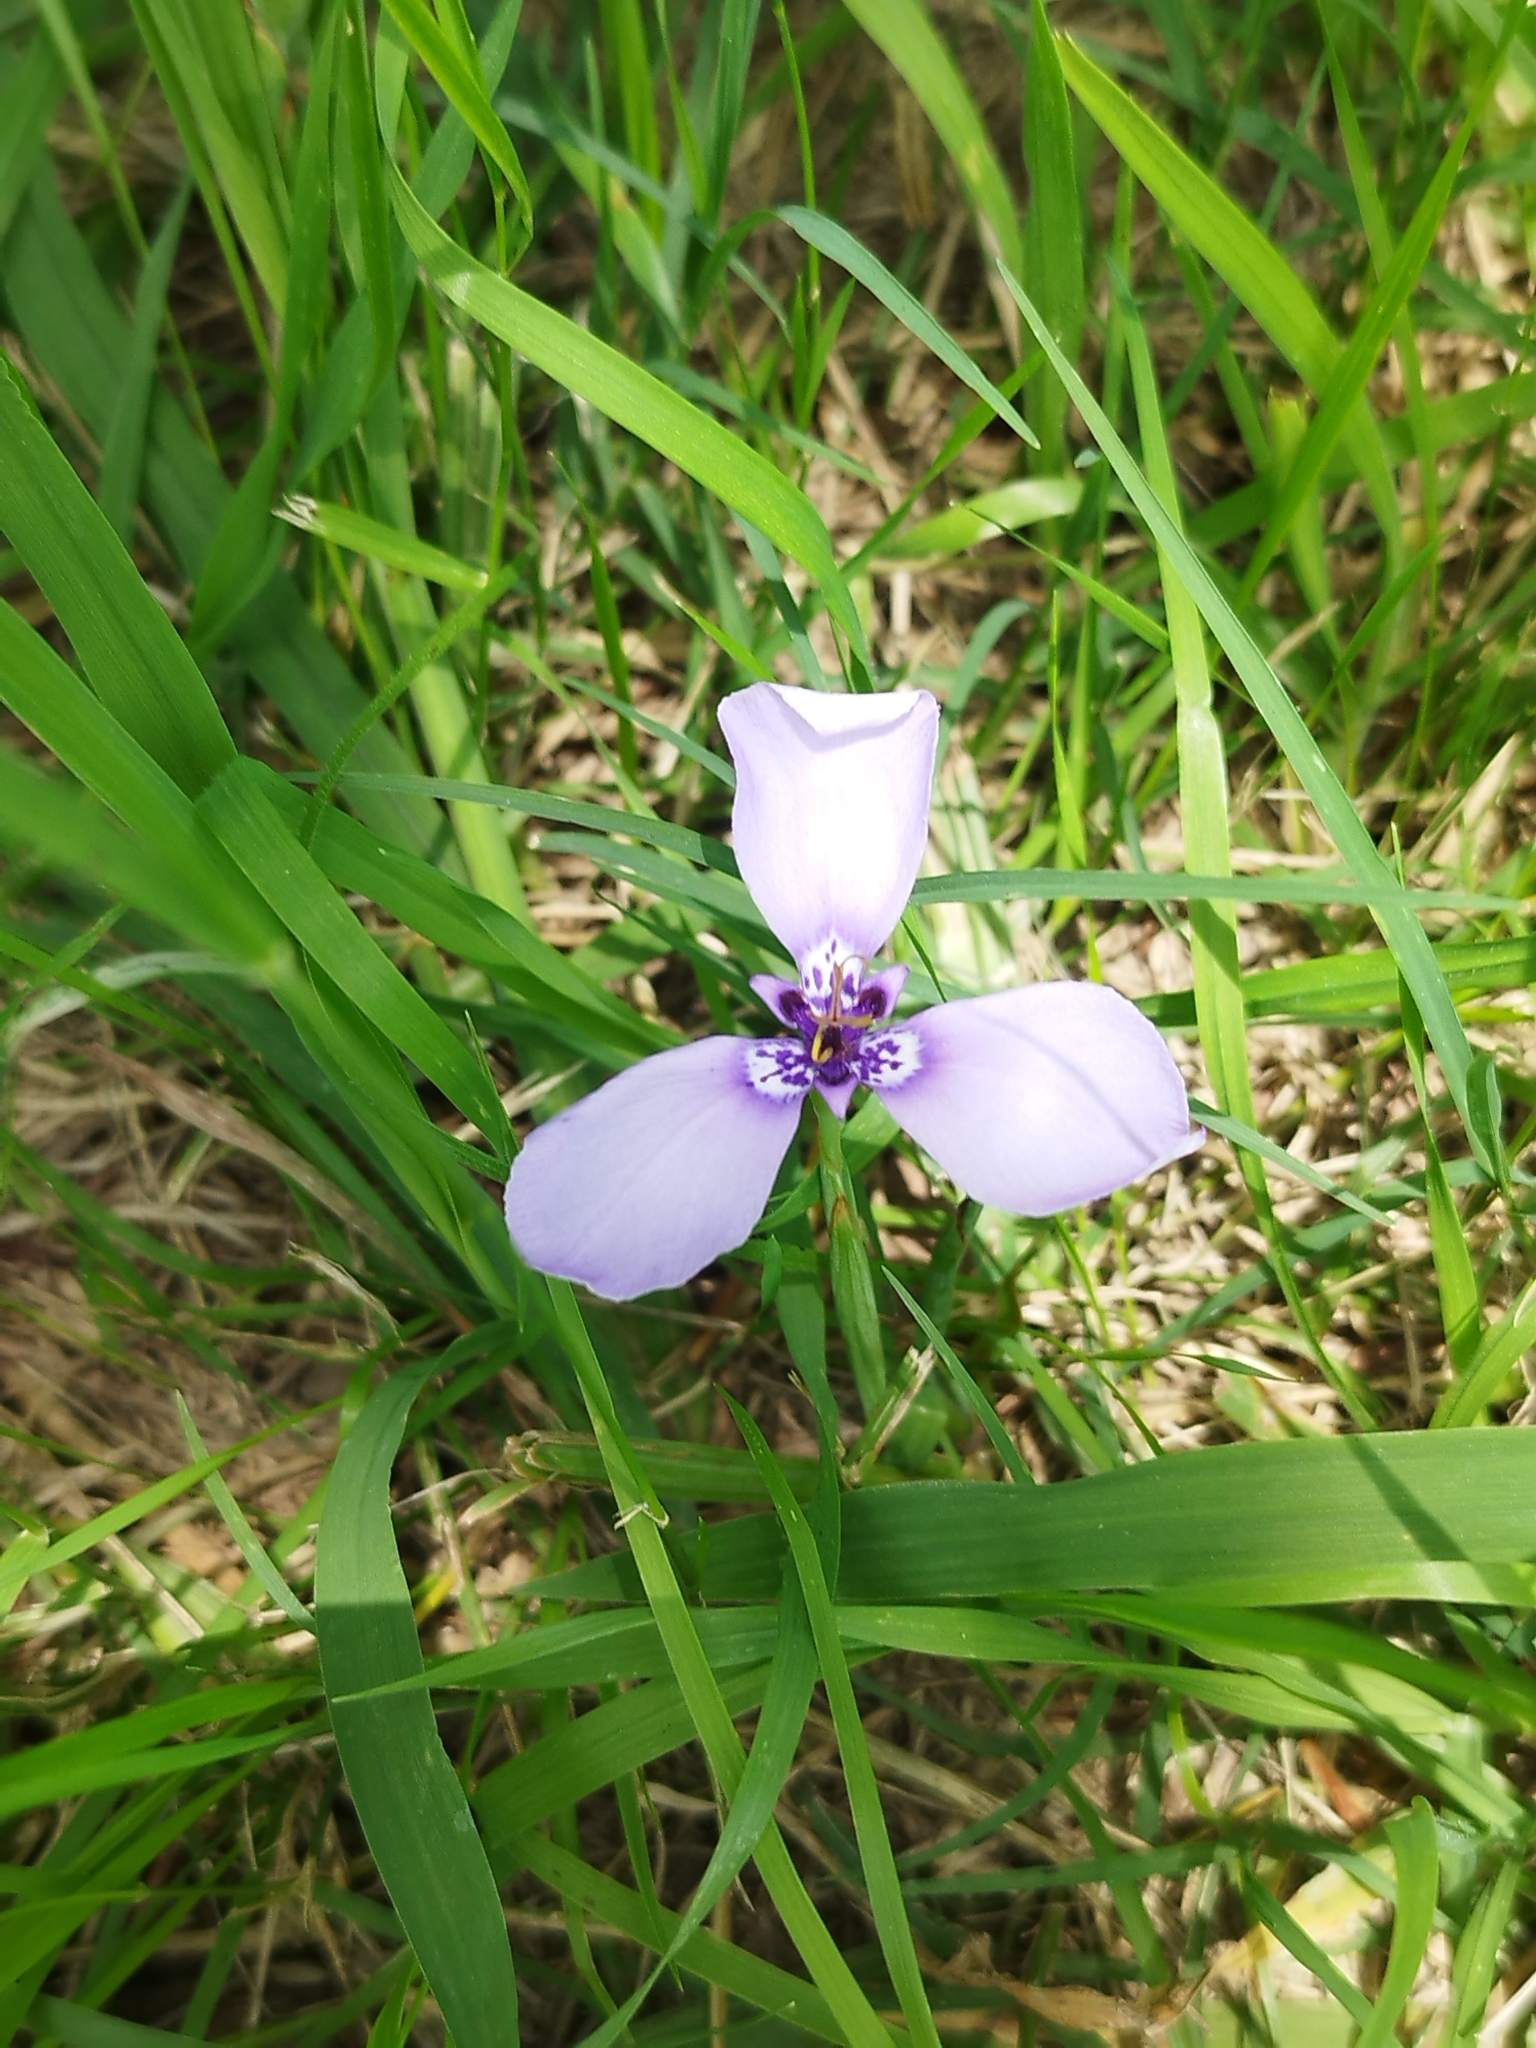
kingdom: Plantae
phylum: Tracheophyta
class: Liliopsida
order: Asparagales
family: Iridaceae
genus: Herbertia
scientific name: Herbertia lahue
